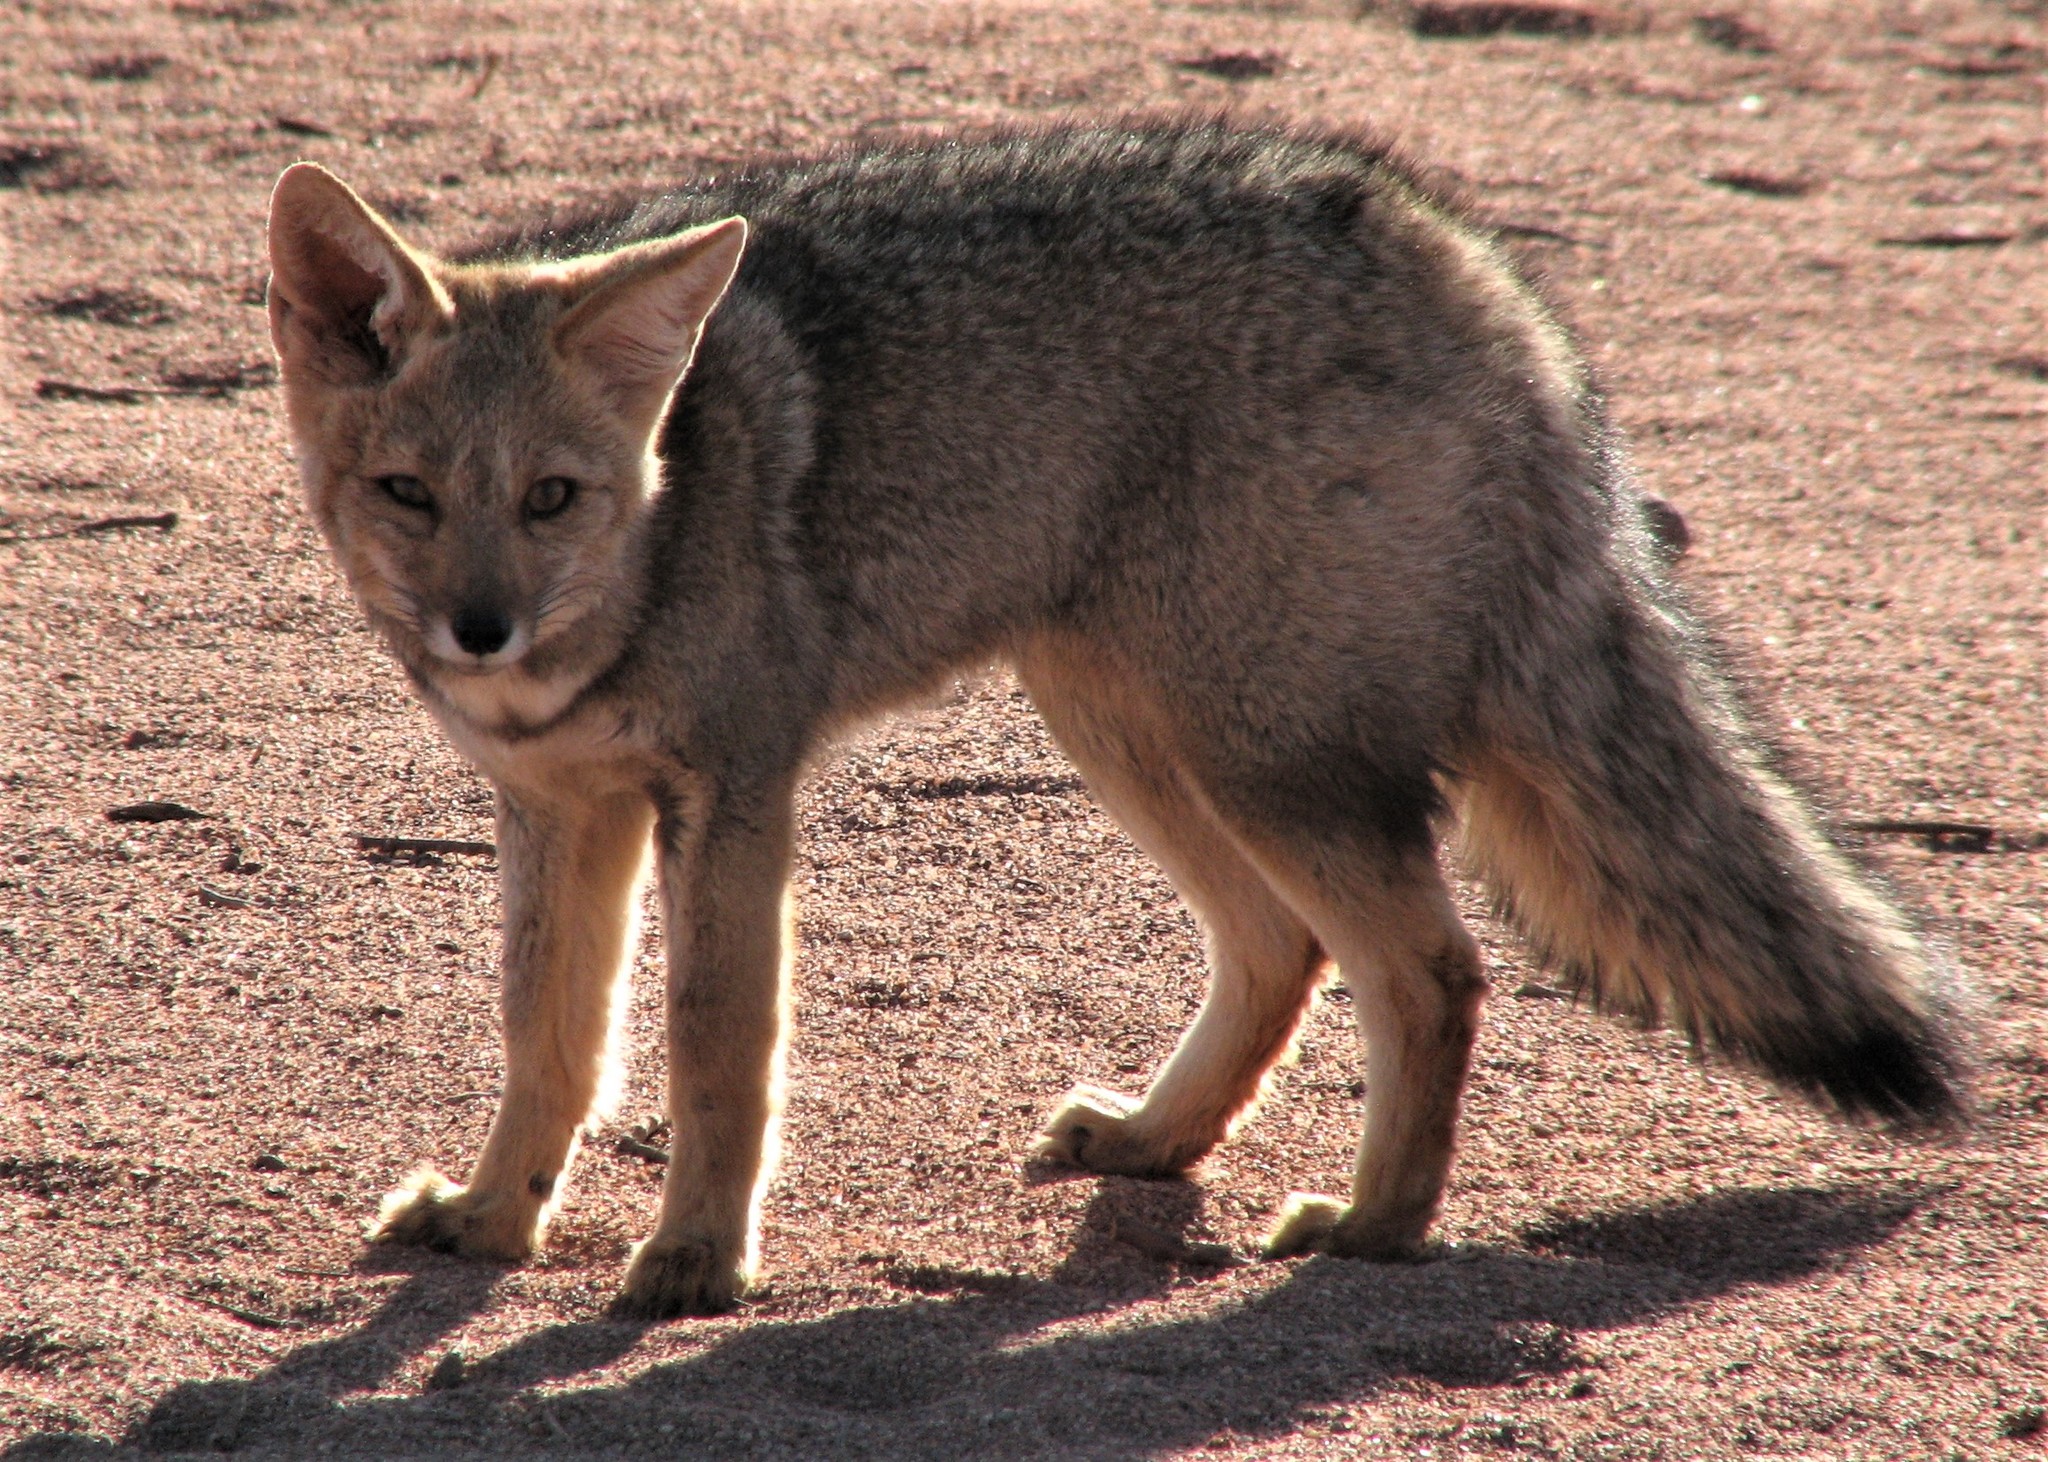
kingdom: Animalia
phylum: Chordata
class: Mammalia
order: Carnivora
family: Canidae
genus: Lycalopex
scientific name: Lycalopex gymnocercus
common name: Pampas fox
